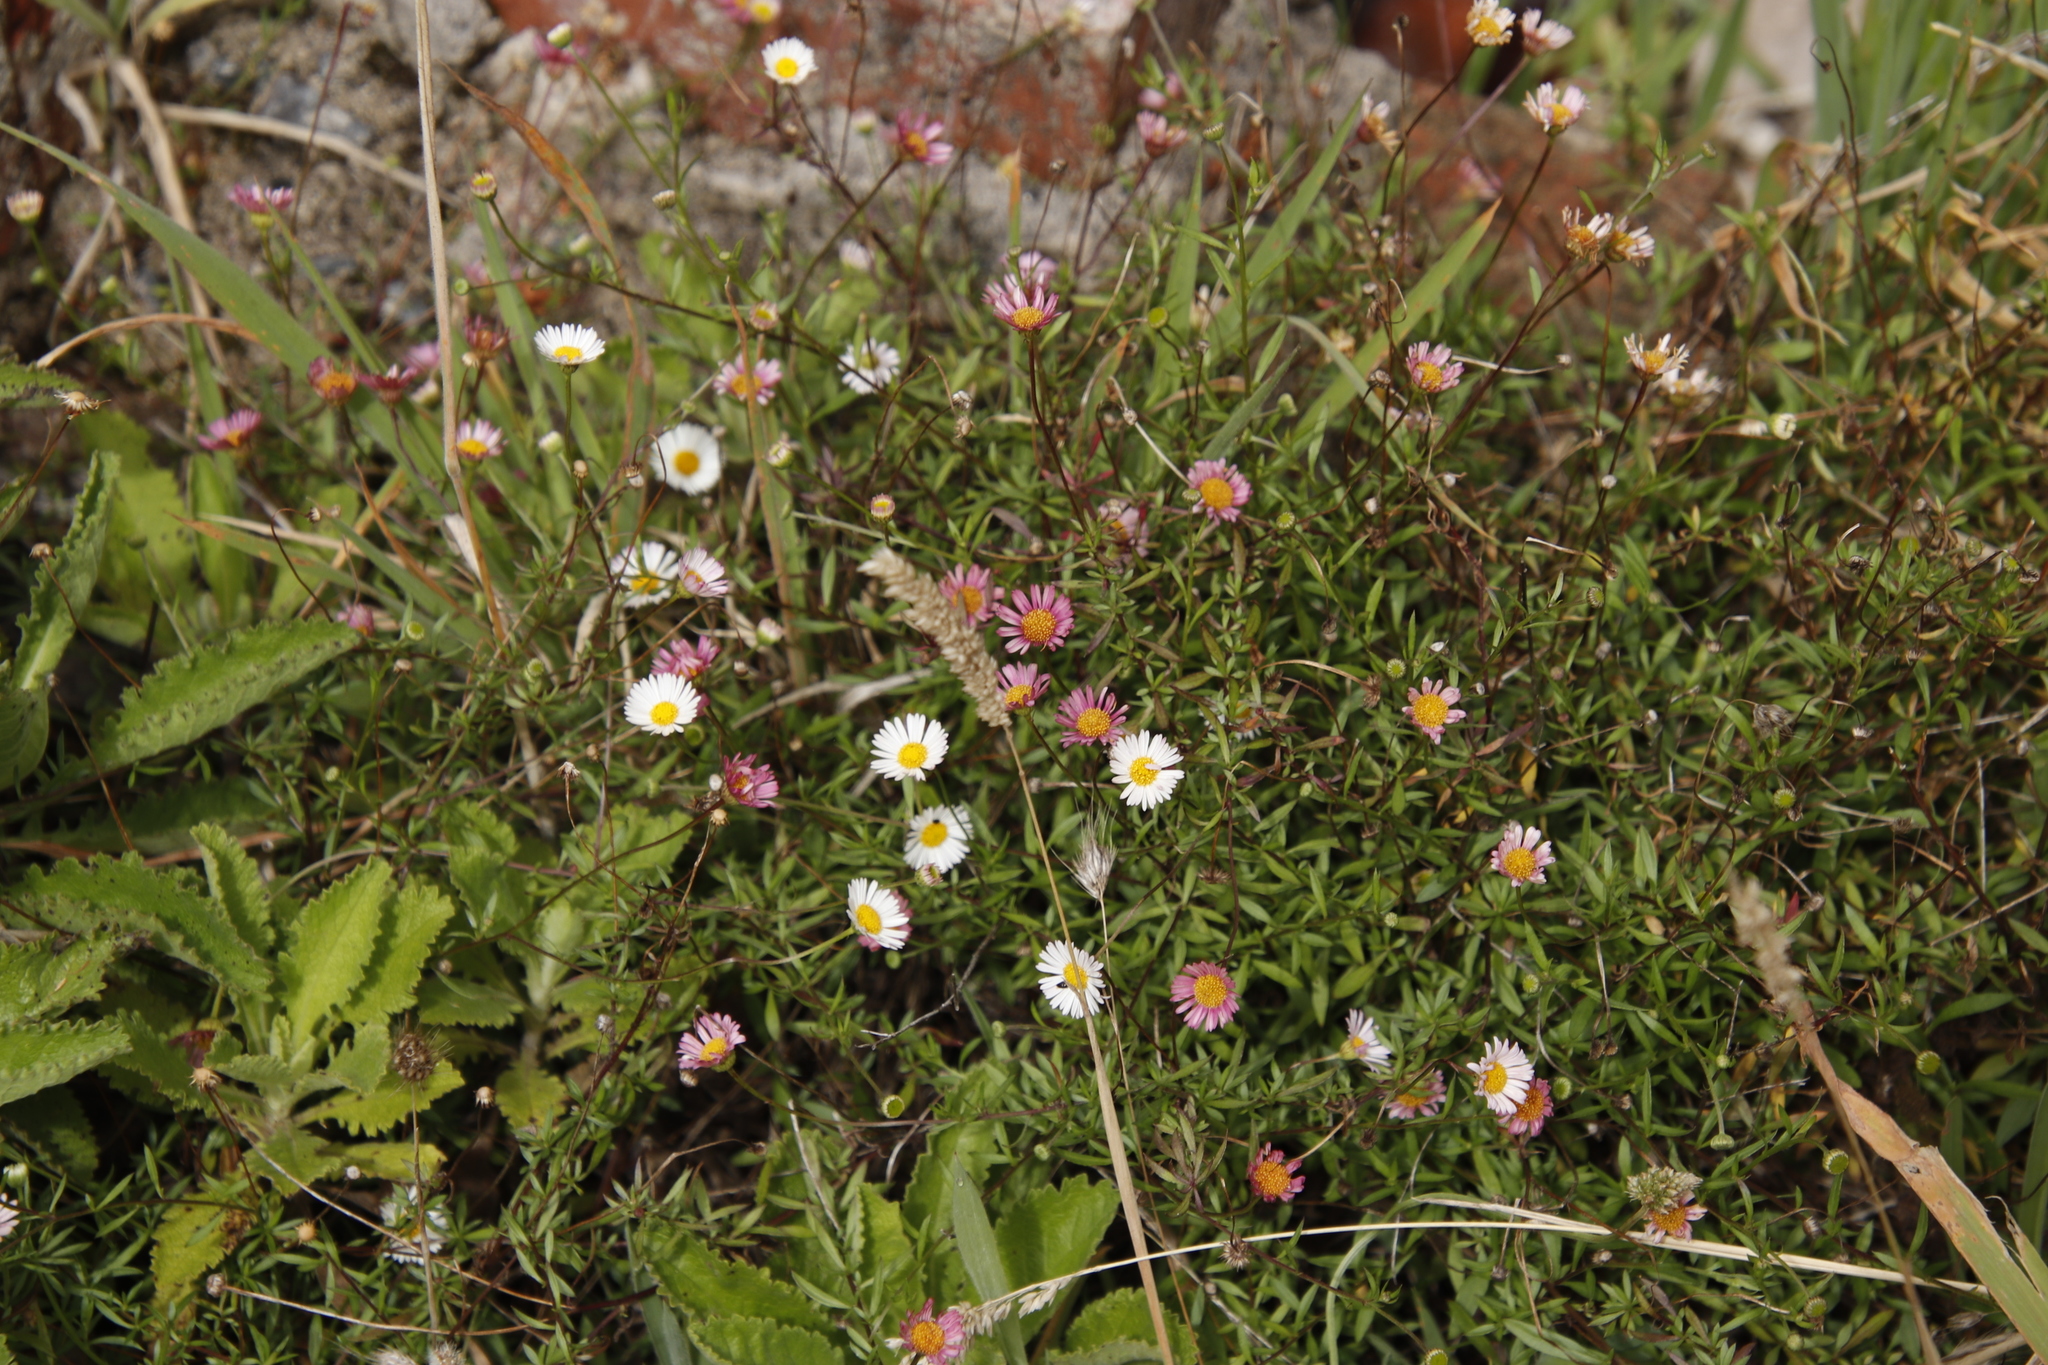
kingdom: Plantae
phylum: Tracheophyta
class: Magnoliopsida
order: Asterales
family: Asteraceae
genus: Erigeron
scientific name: Erigeron karvinskianus
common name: Mexican fleabane
